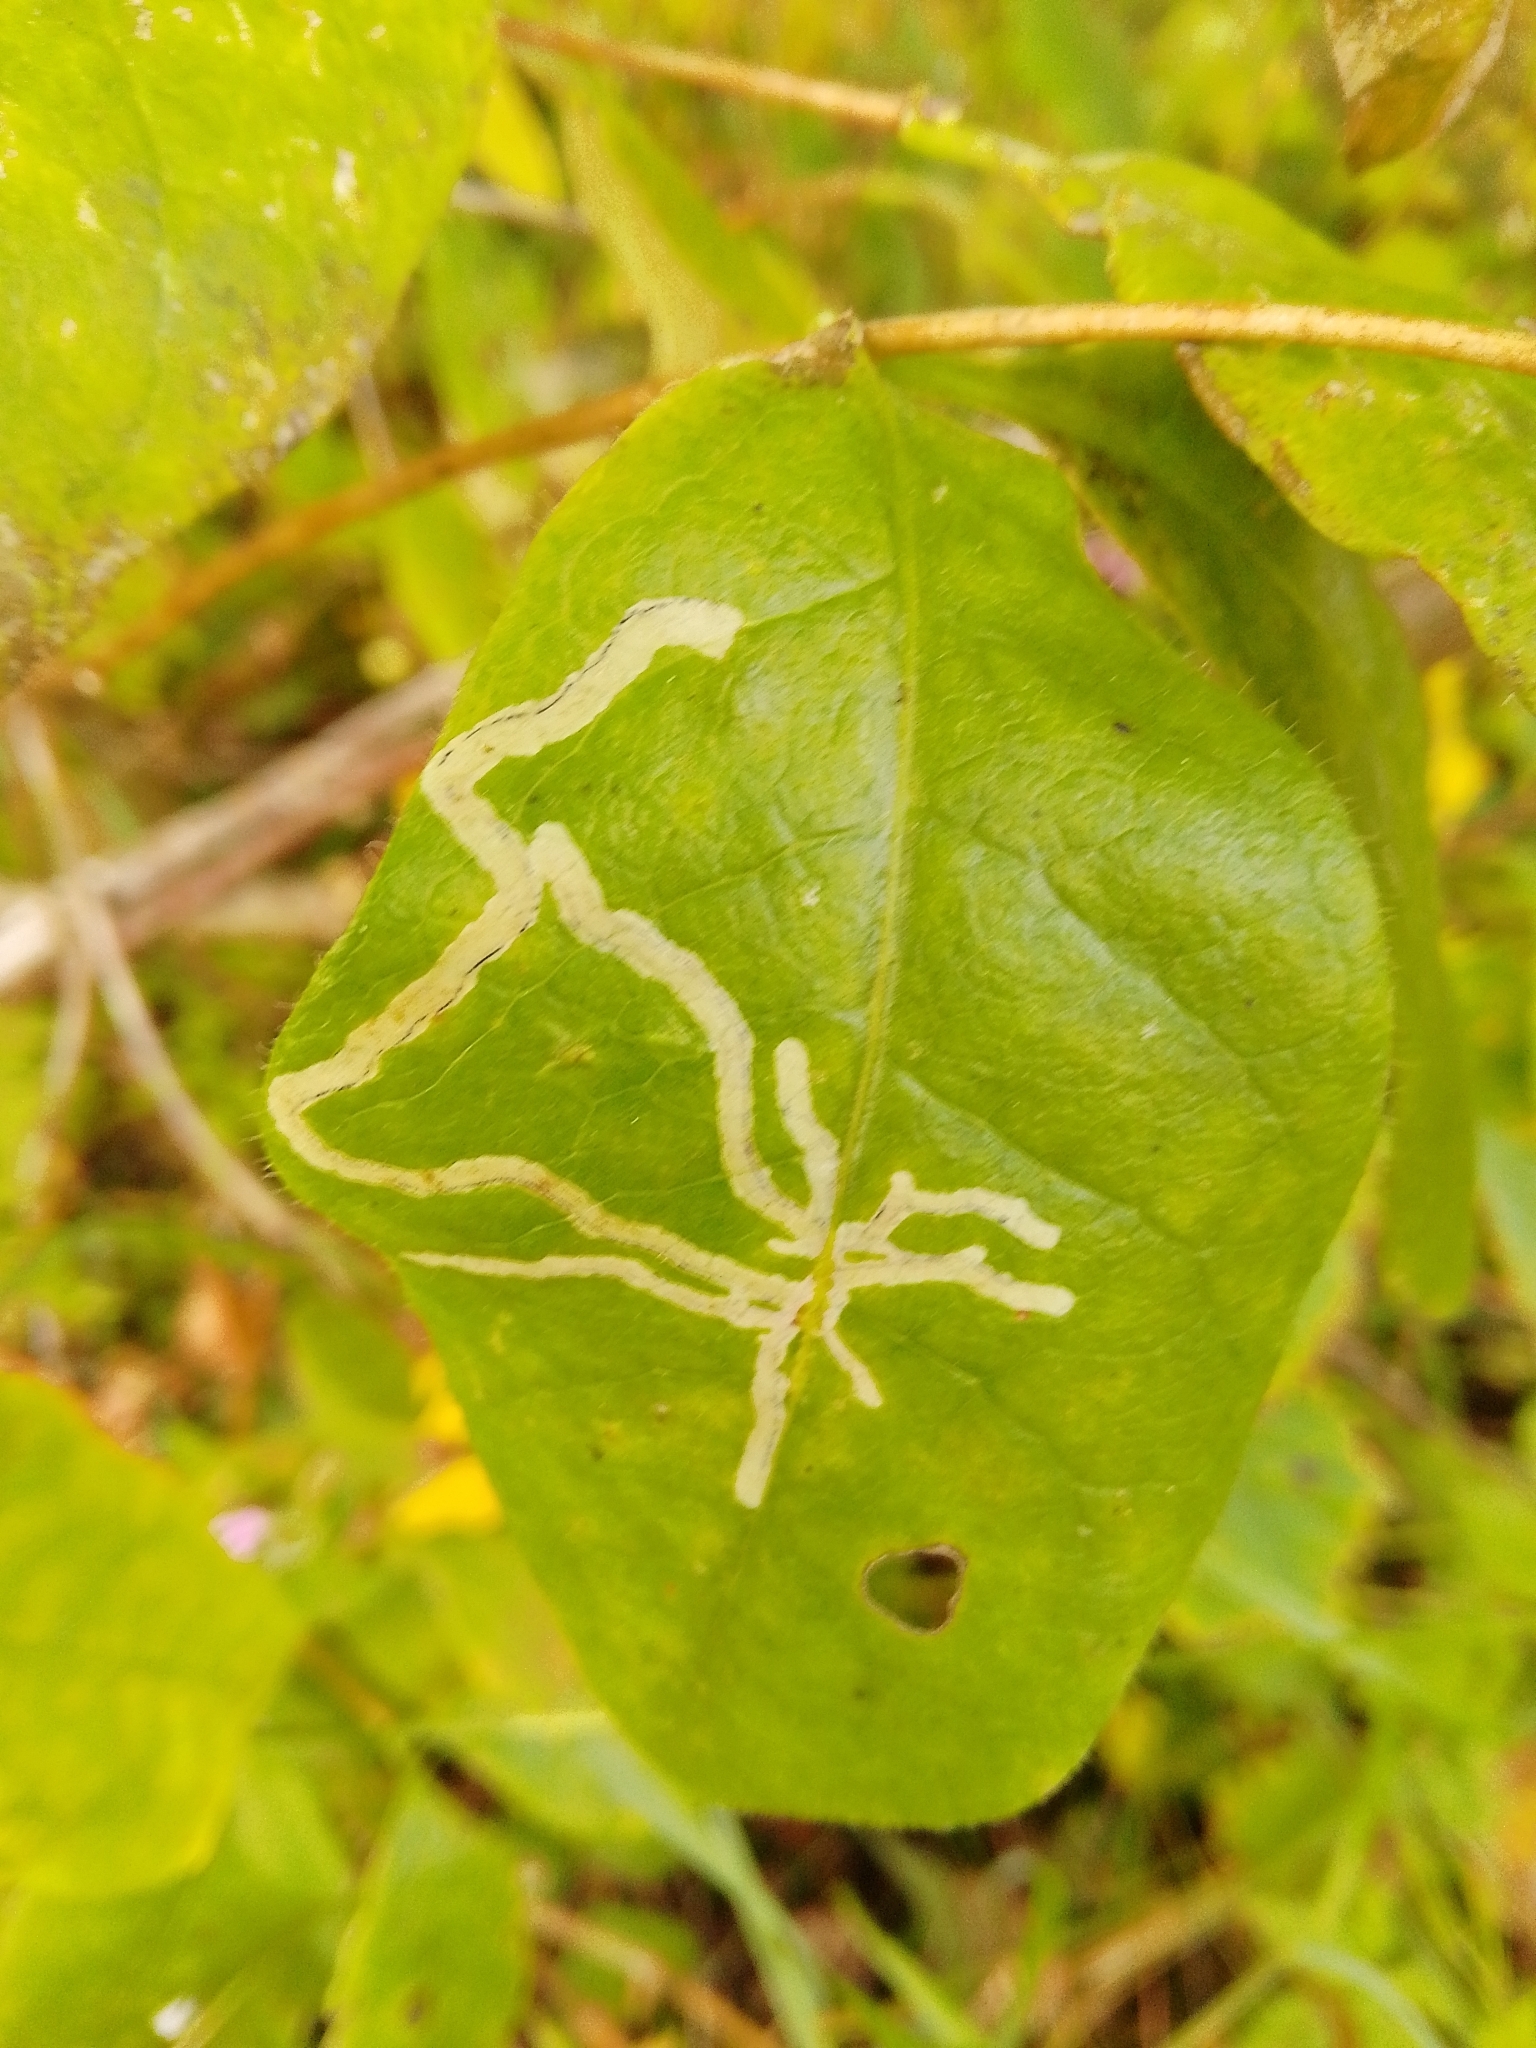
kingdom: Animalia
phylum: Arthropoda
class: Insecta
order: Diptera
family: Agromyzidae
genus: Phytomyza
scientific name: Phytomyza aprilina
